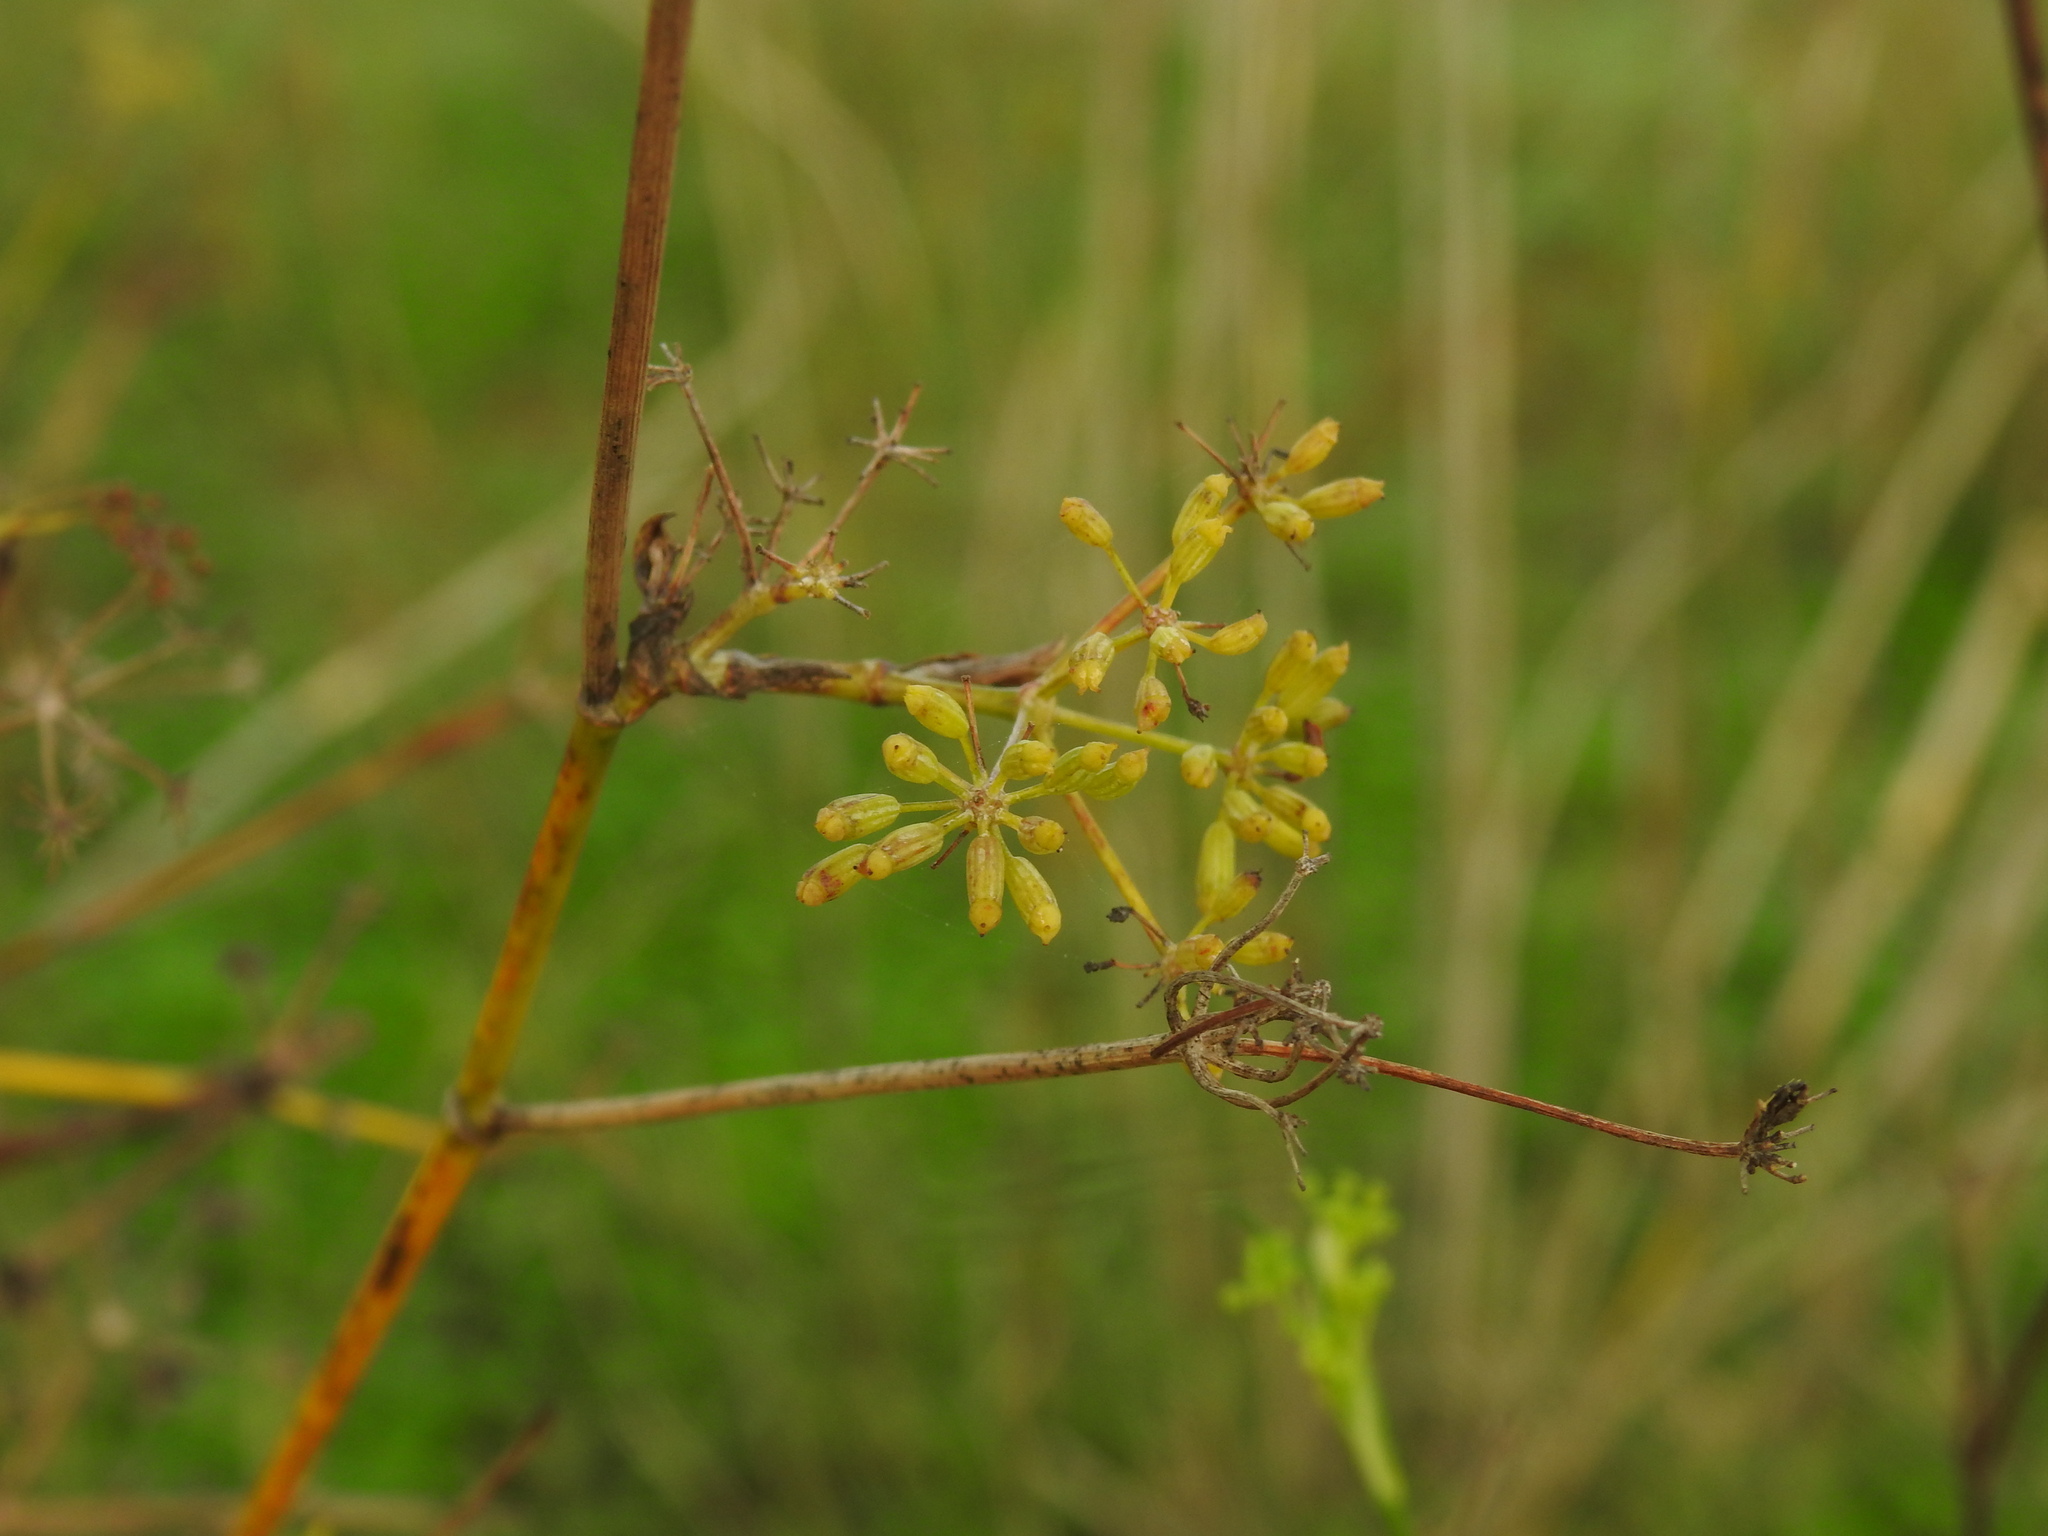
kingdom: Plantae
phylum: Tracheophyta
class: Magnoliopsida
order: Apiales
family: Apiaceae
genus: Foeniculum
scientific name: Foeniculum vulgare
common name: Fennel
